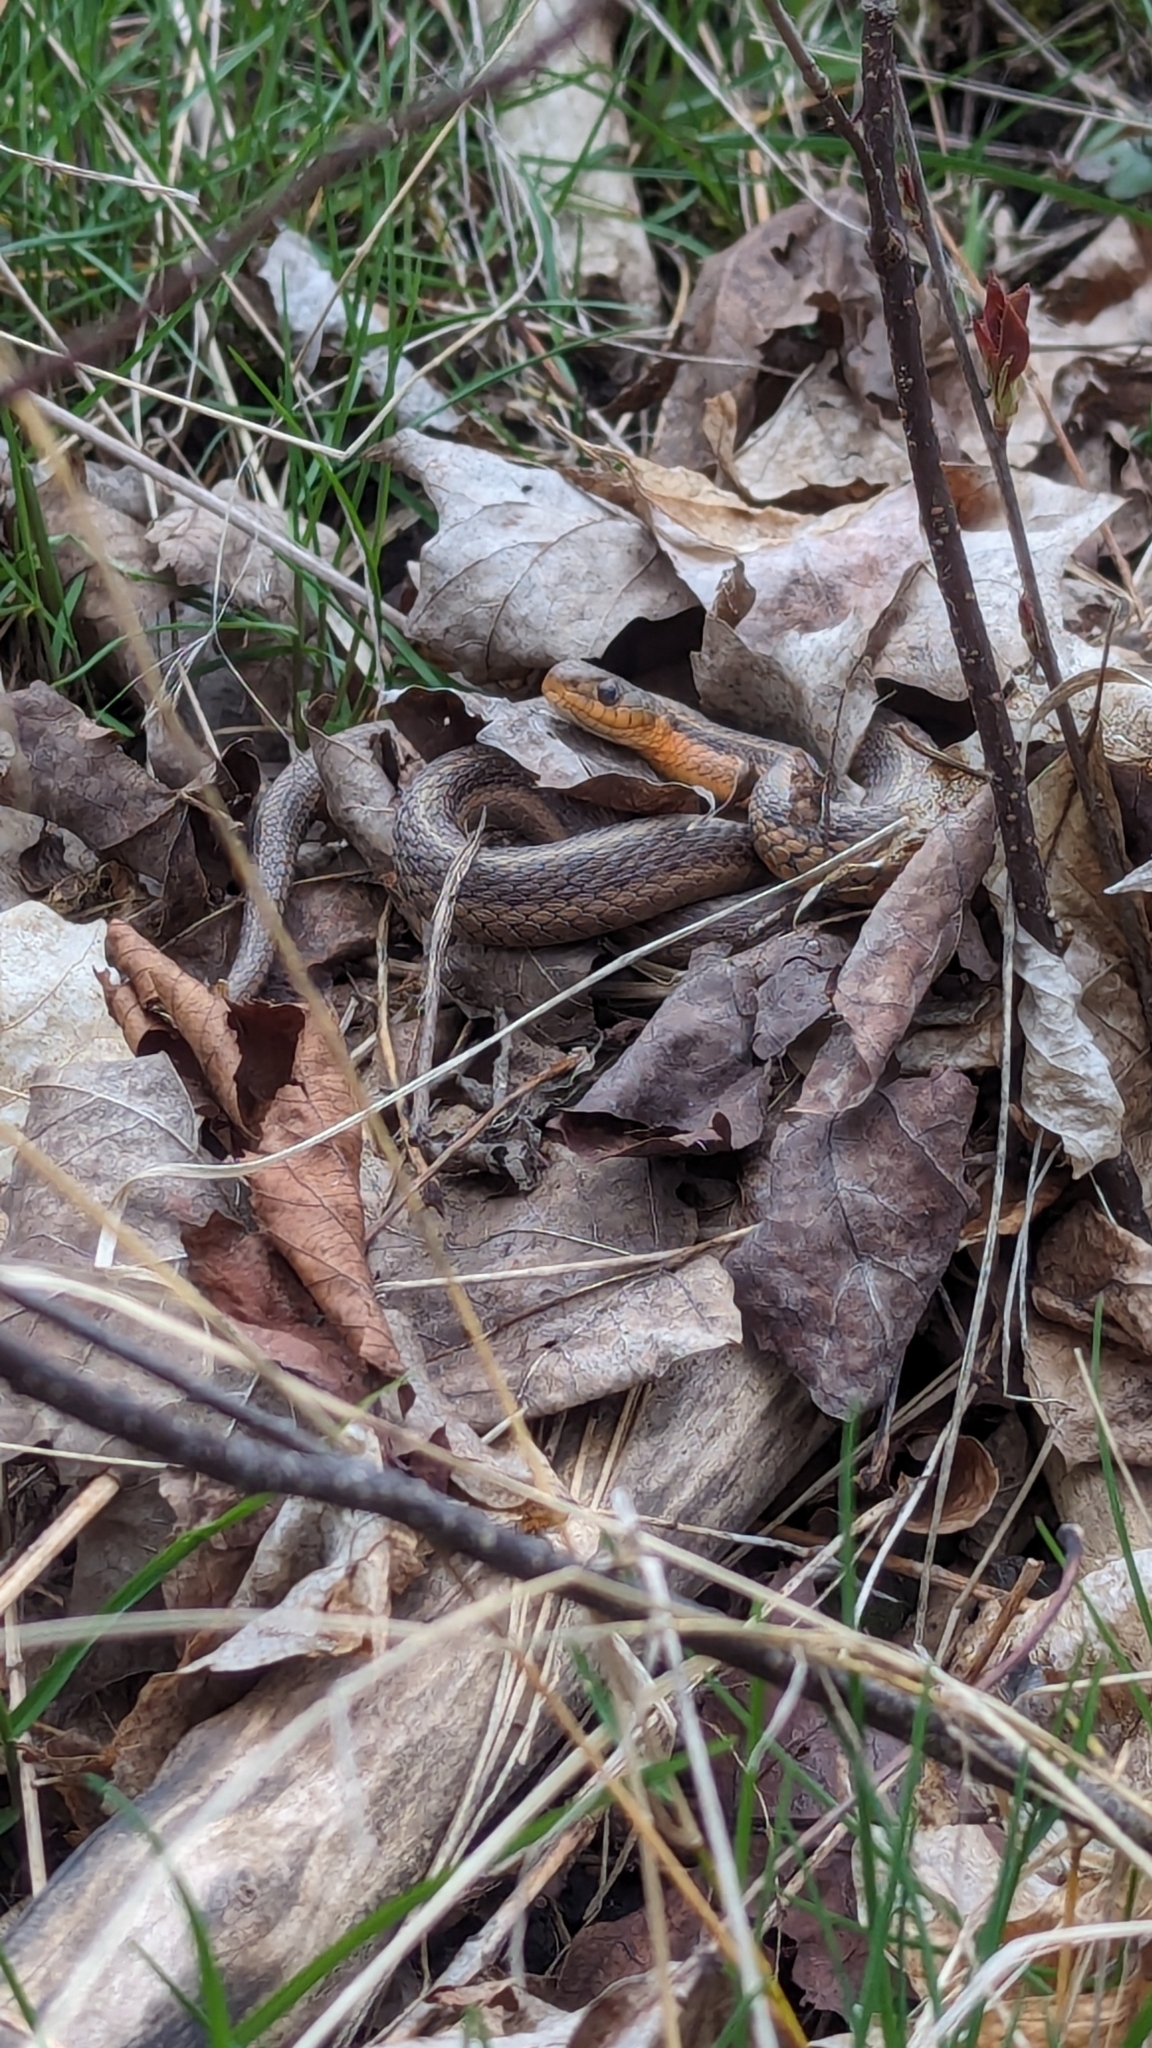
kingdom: Animalia
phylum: Chordata
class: Squamata
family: Colubridae
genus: Thamnophis
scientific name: Thamnophis sirtalis
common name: Common garter snake
